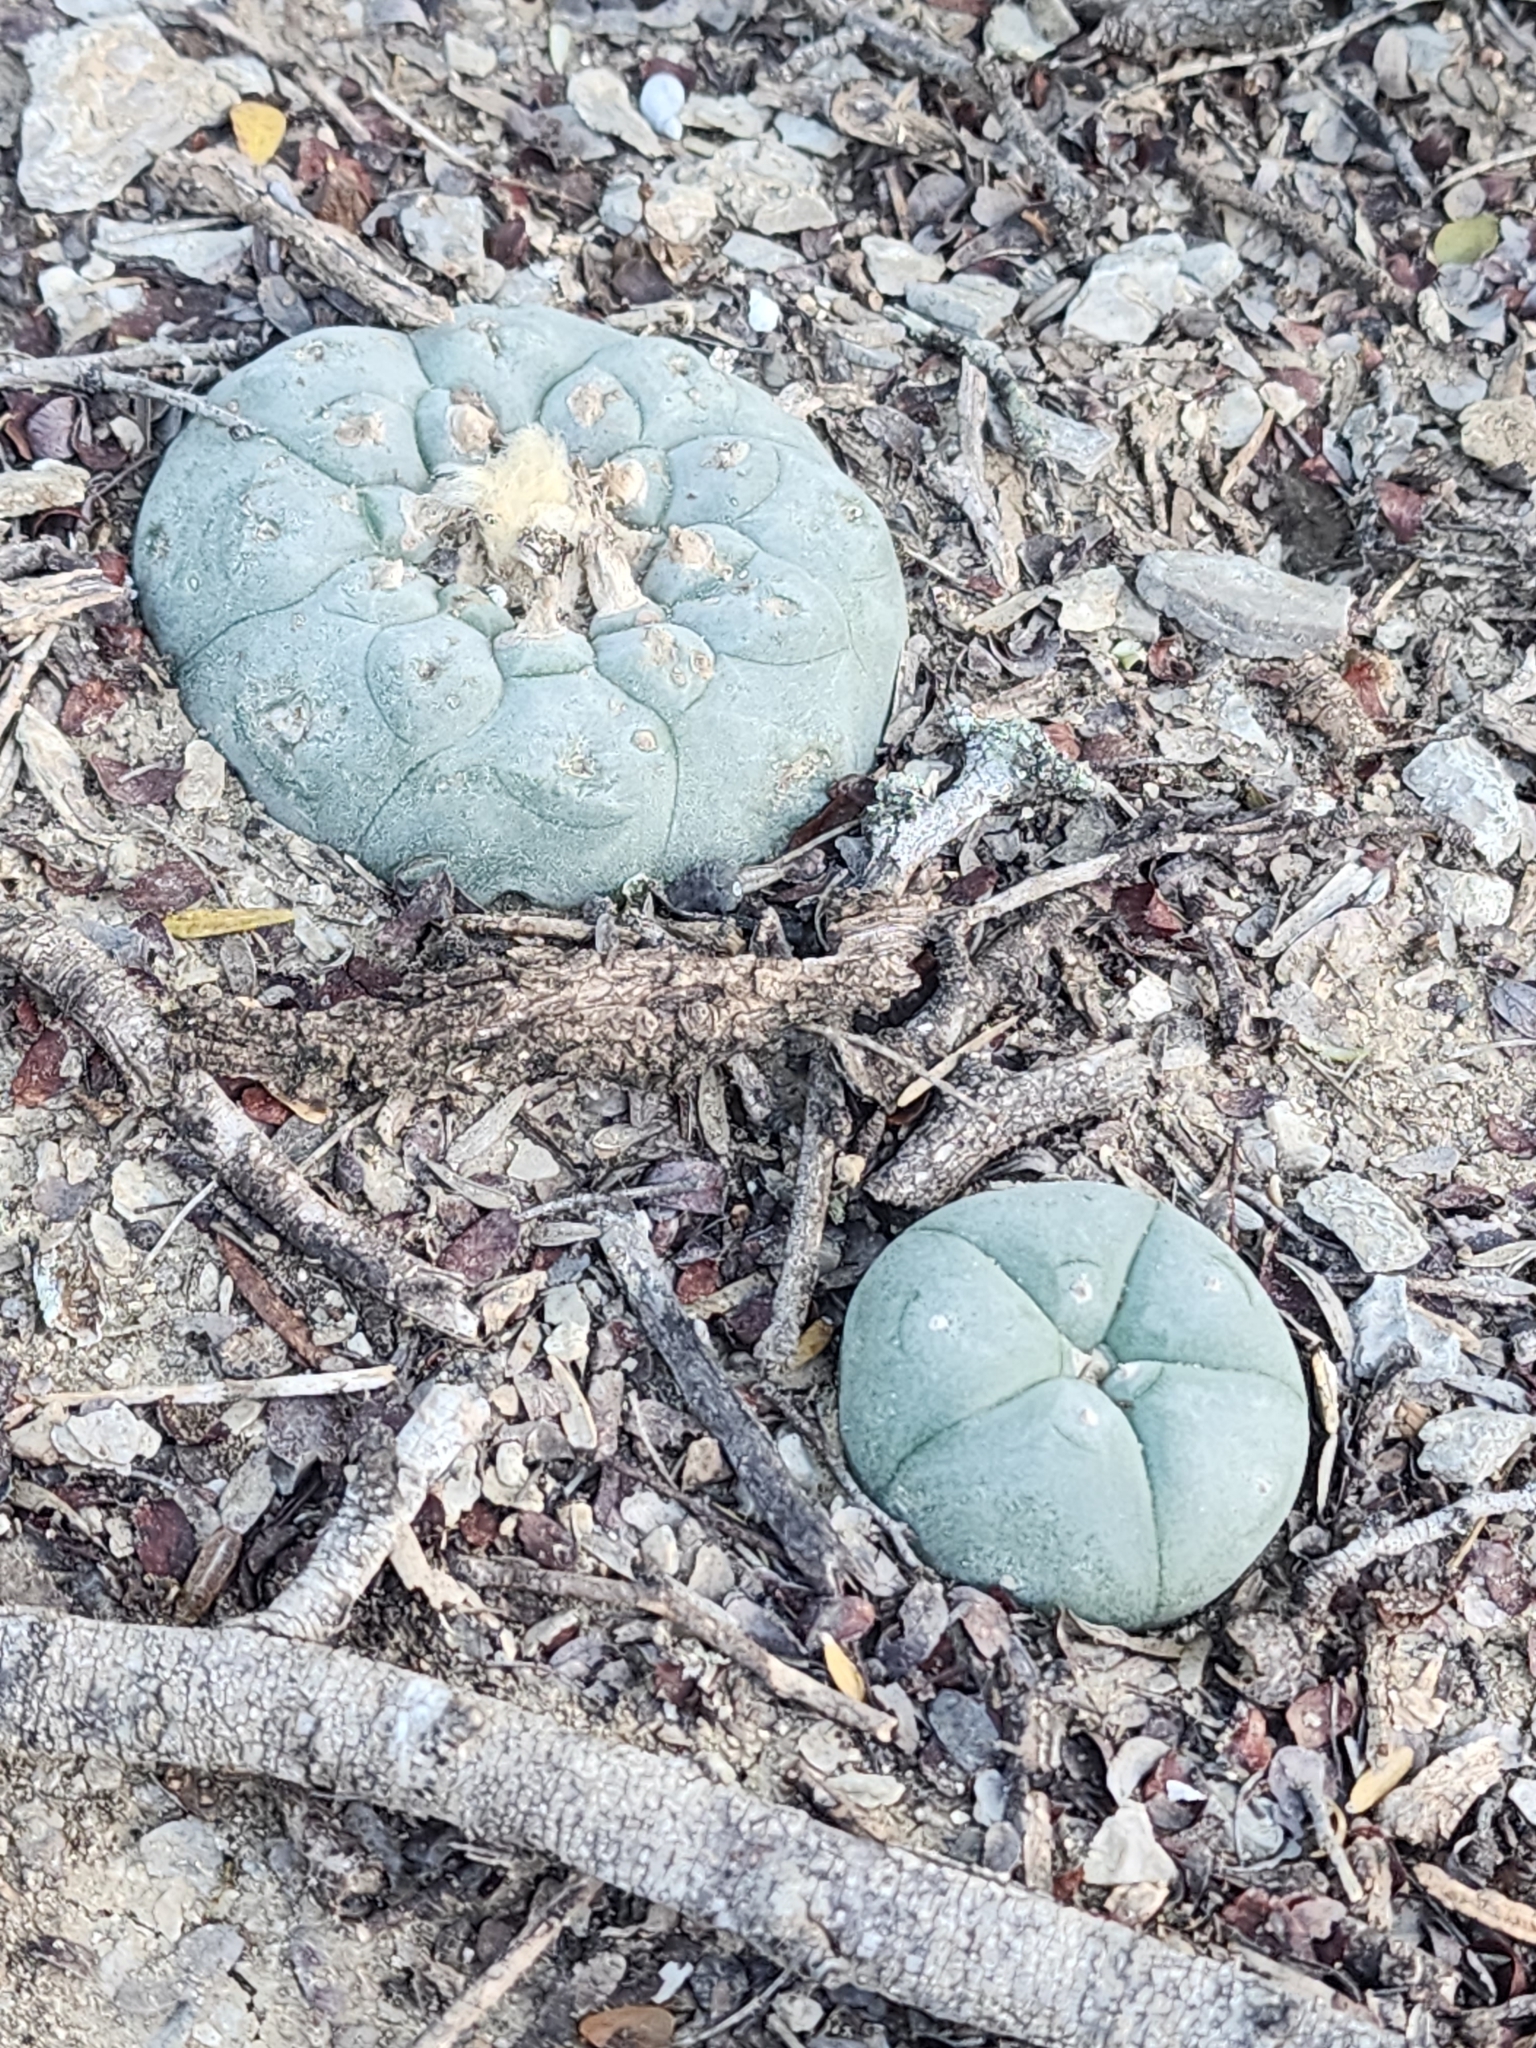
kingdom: Plantae
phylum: Tracheophyta
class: Magnoliopsida
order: Caryophyllales
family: Cactaceae
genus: Lophophora
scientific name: Lophophora williamsii
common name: Indian-dope
